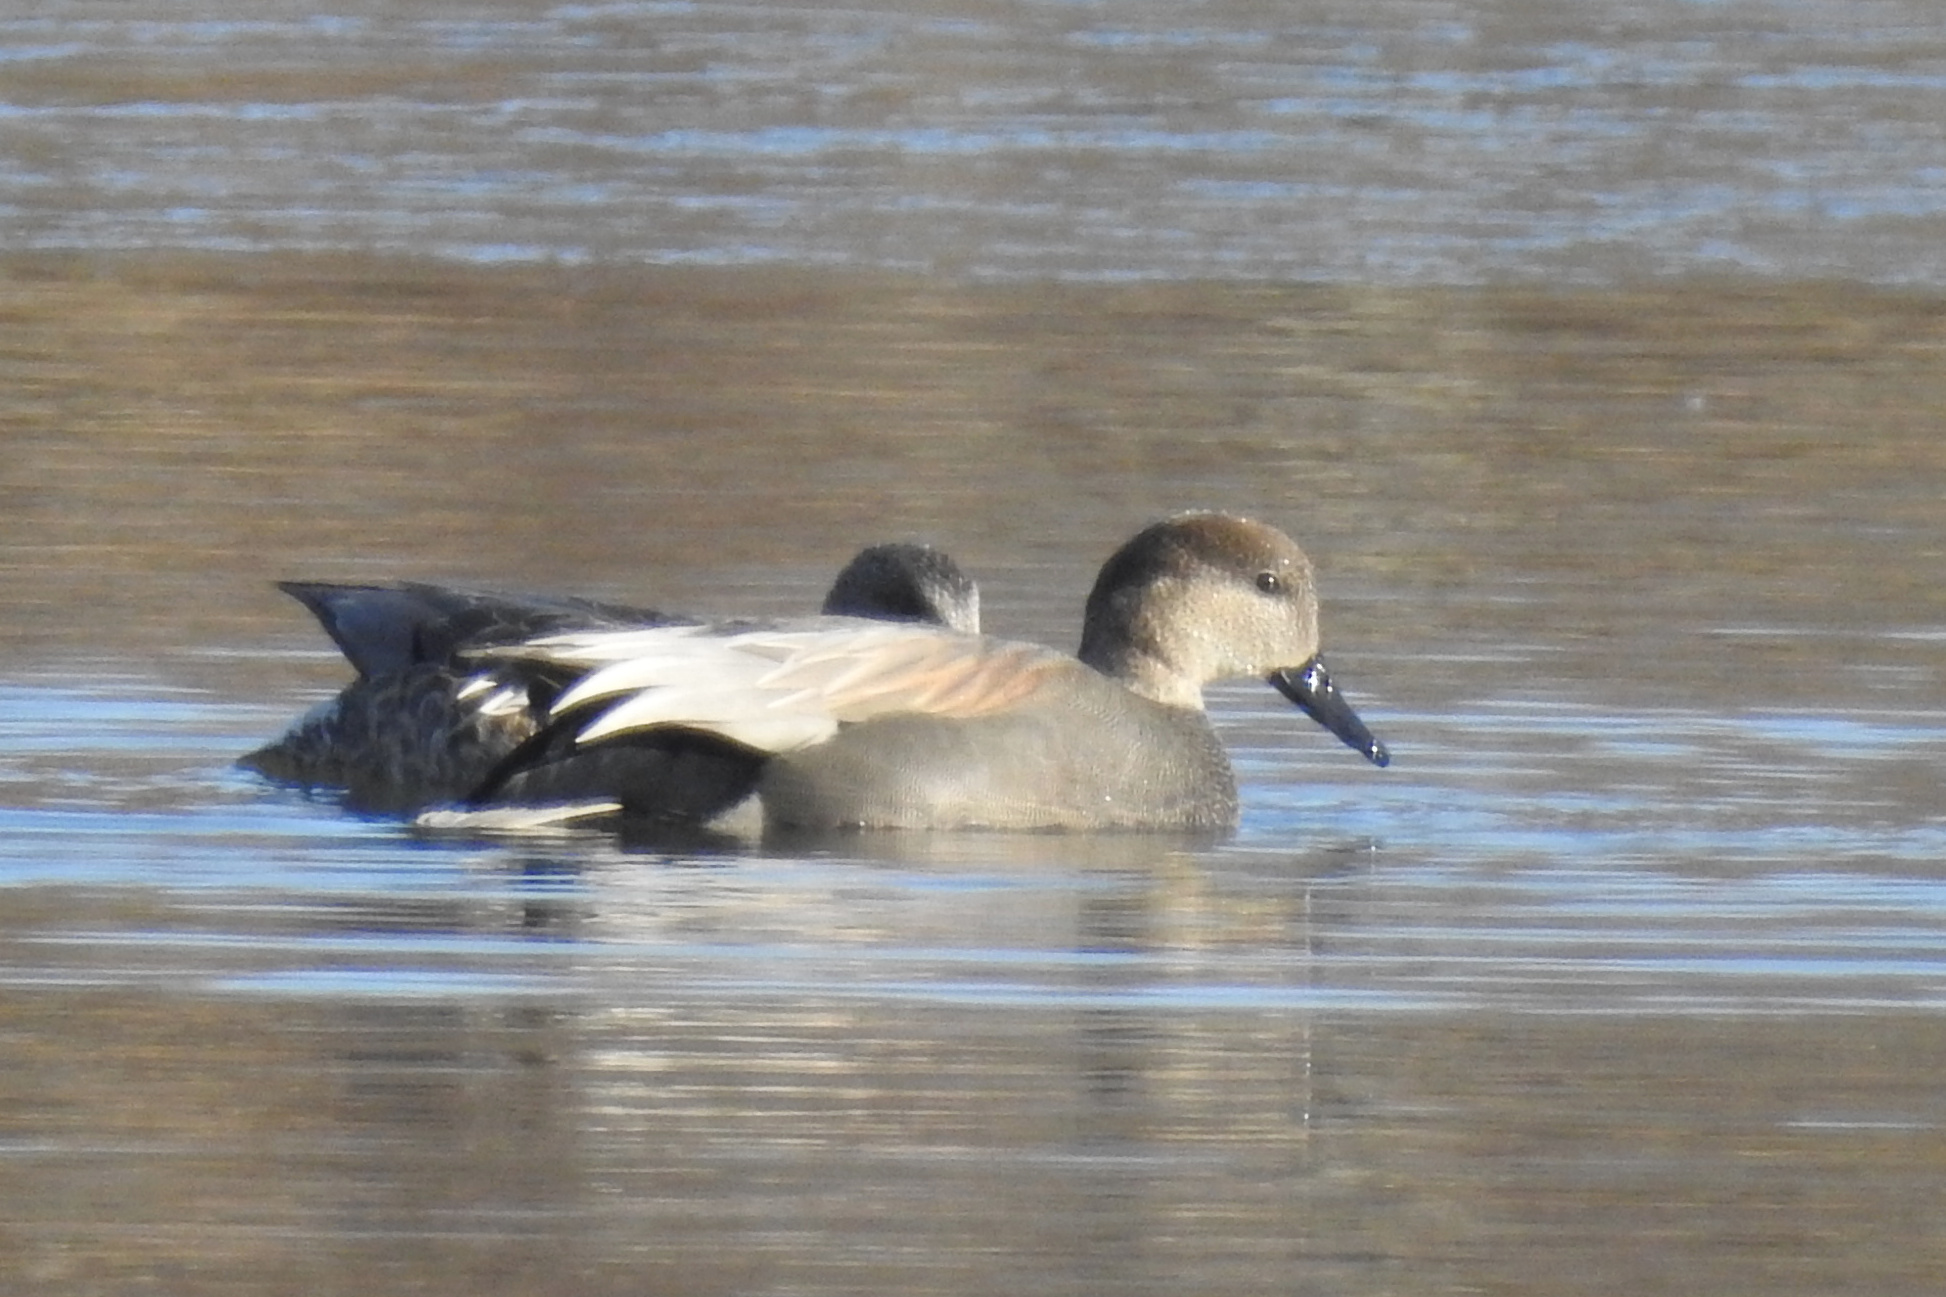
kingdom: Animalia
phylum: Chordata
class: Aves
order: Anseriformes
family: Anatidae
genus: Mareca
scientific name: Mareca strepera
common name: Gadwall
